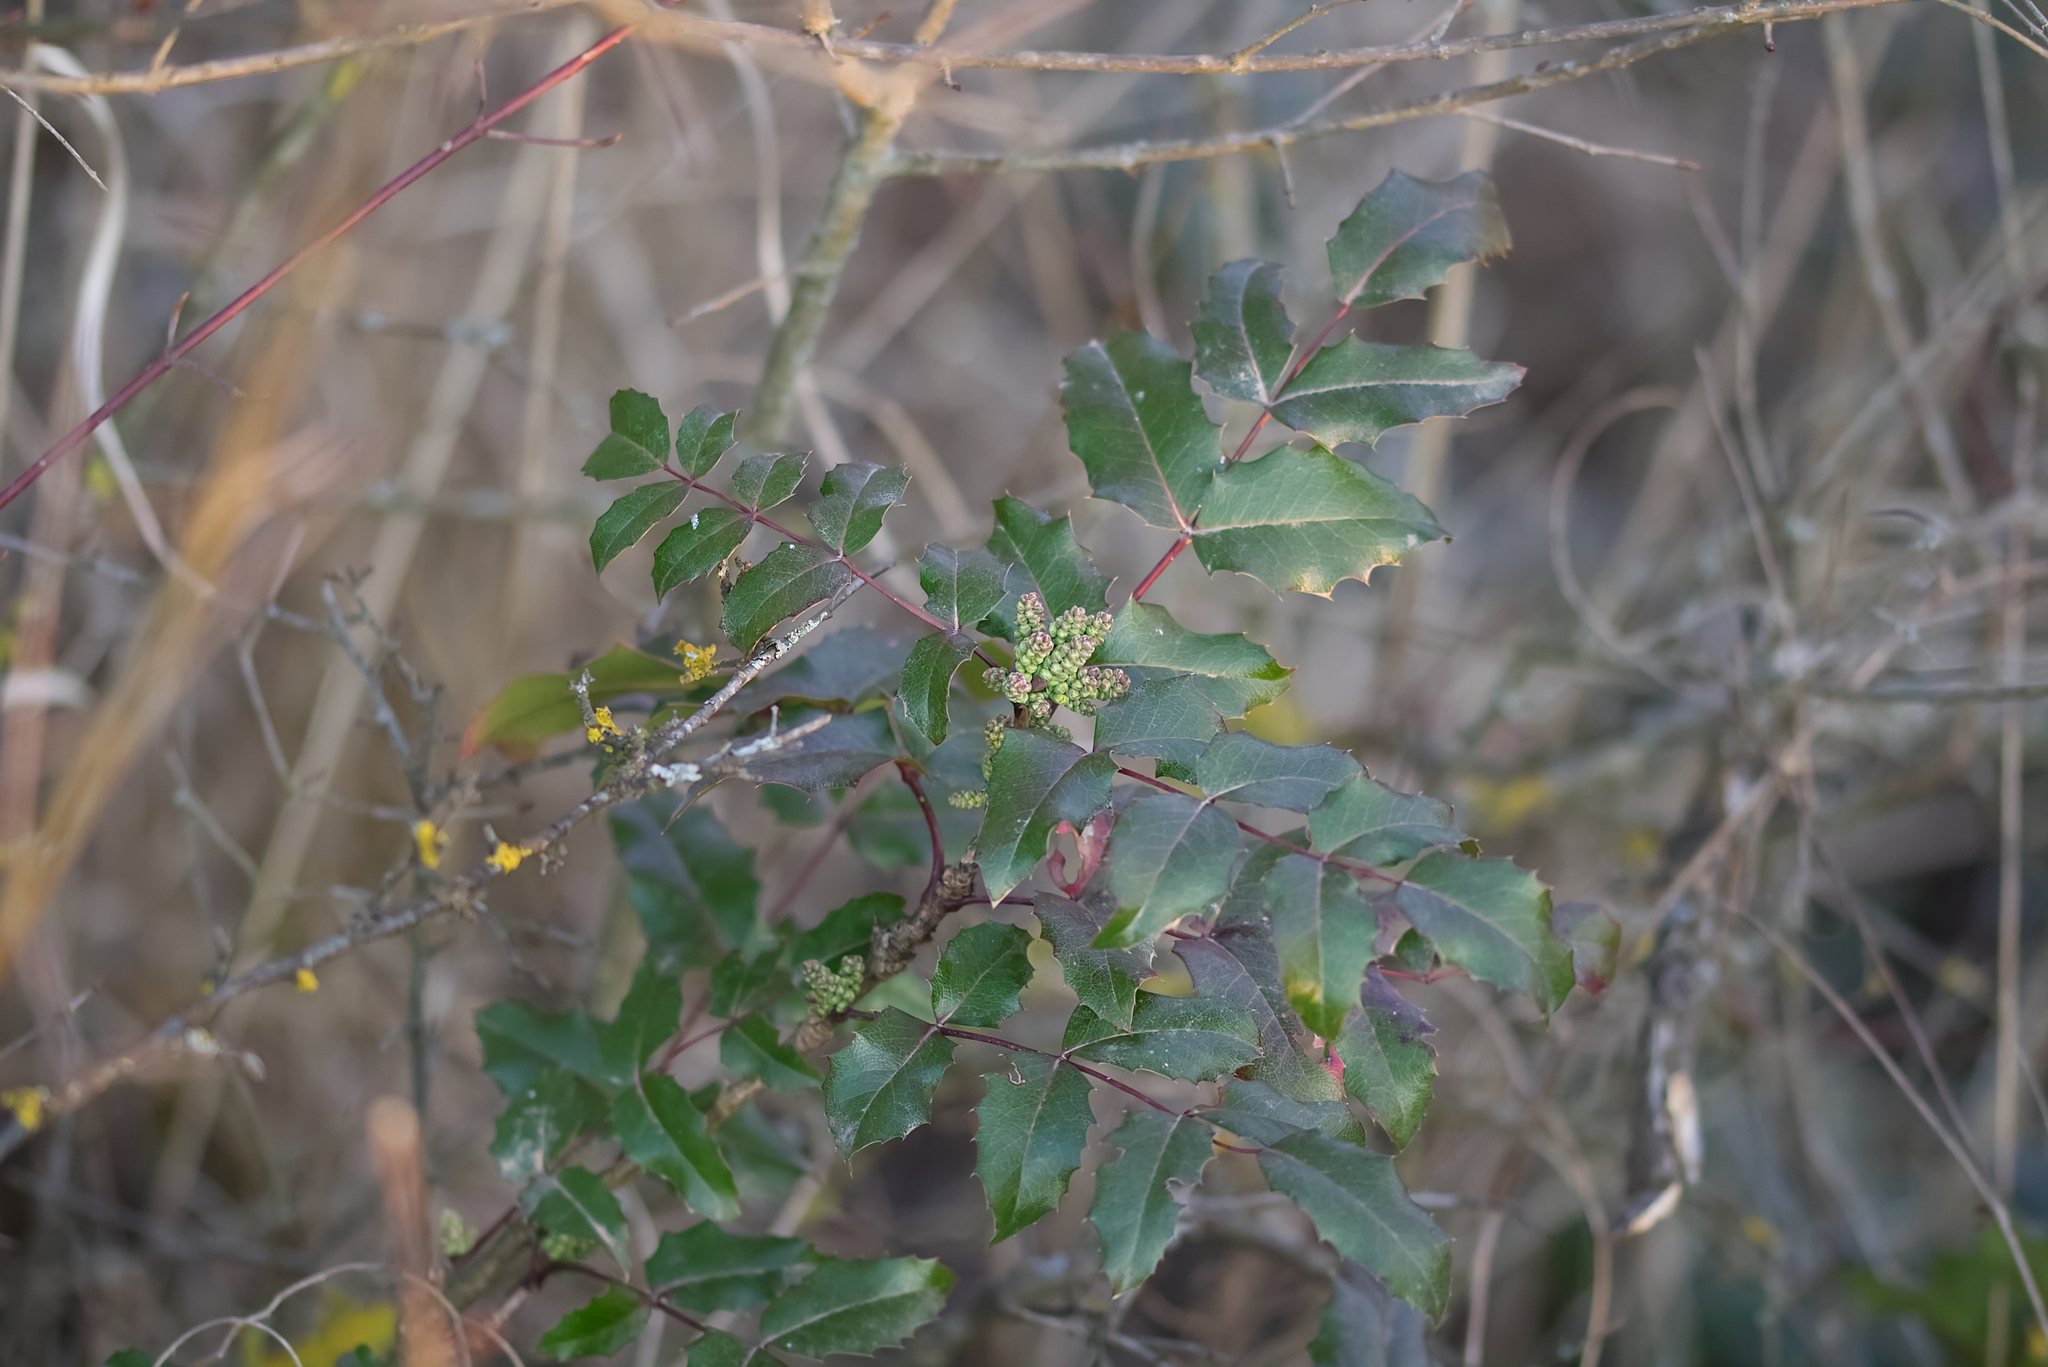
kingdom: Plantae
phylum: Tracheophyta
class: Magnoliopsida
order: Ranunculales
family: Berberidaceae
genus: Mahonia
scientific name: Mahonia aquifolium
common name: Oregon-grape
